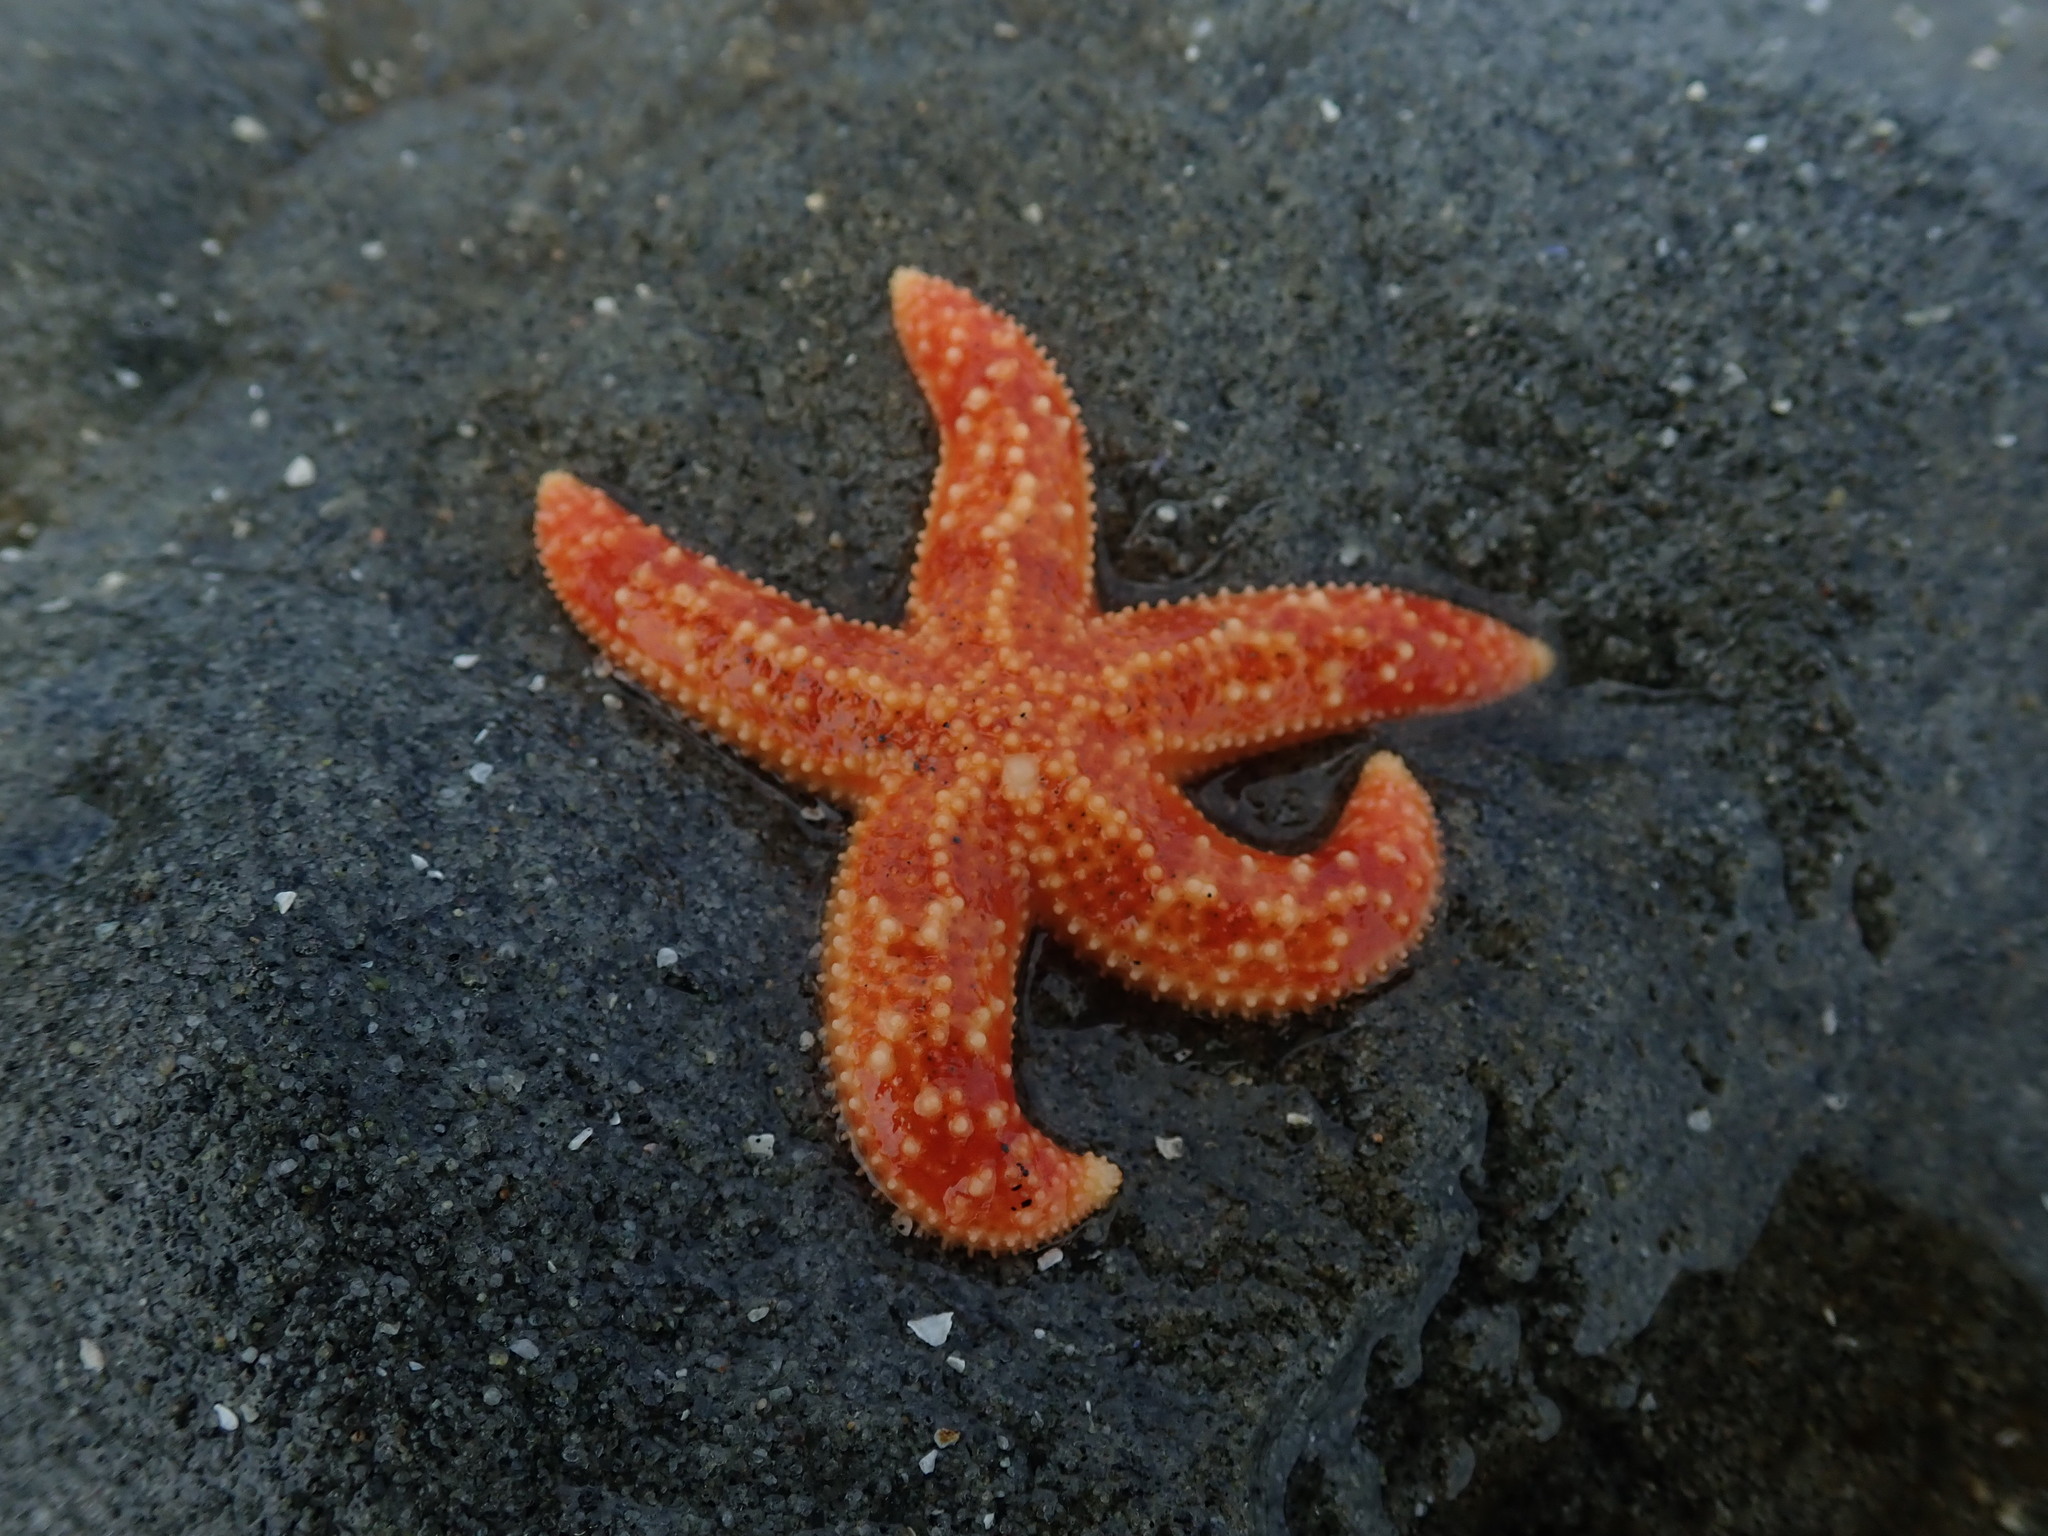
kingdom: Animalia
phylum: Echinodermata
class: Asteroidea
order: Forcipulatida
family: Asteriidae
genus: Evasterias
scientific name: Evasterias troschelii
